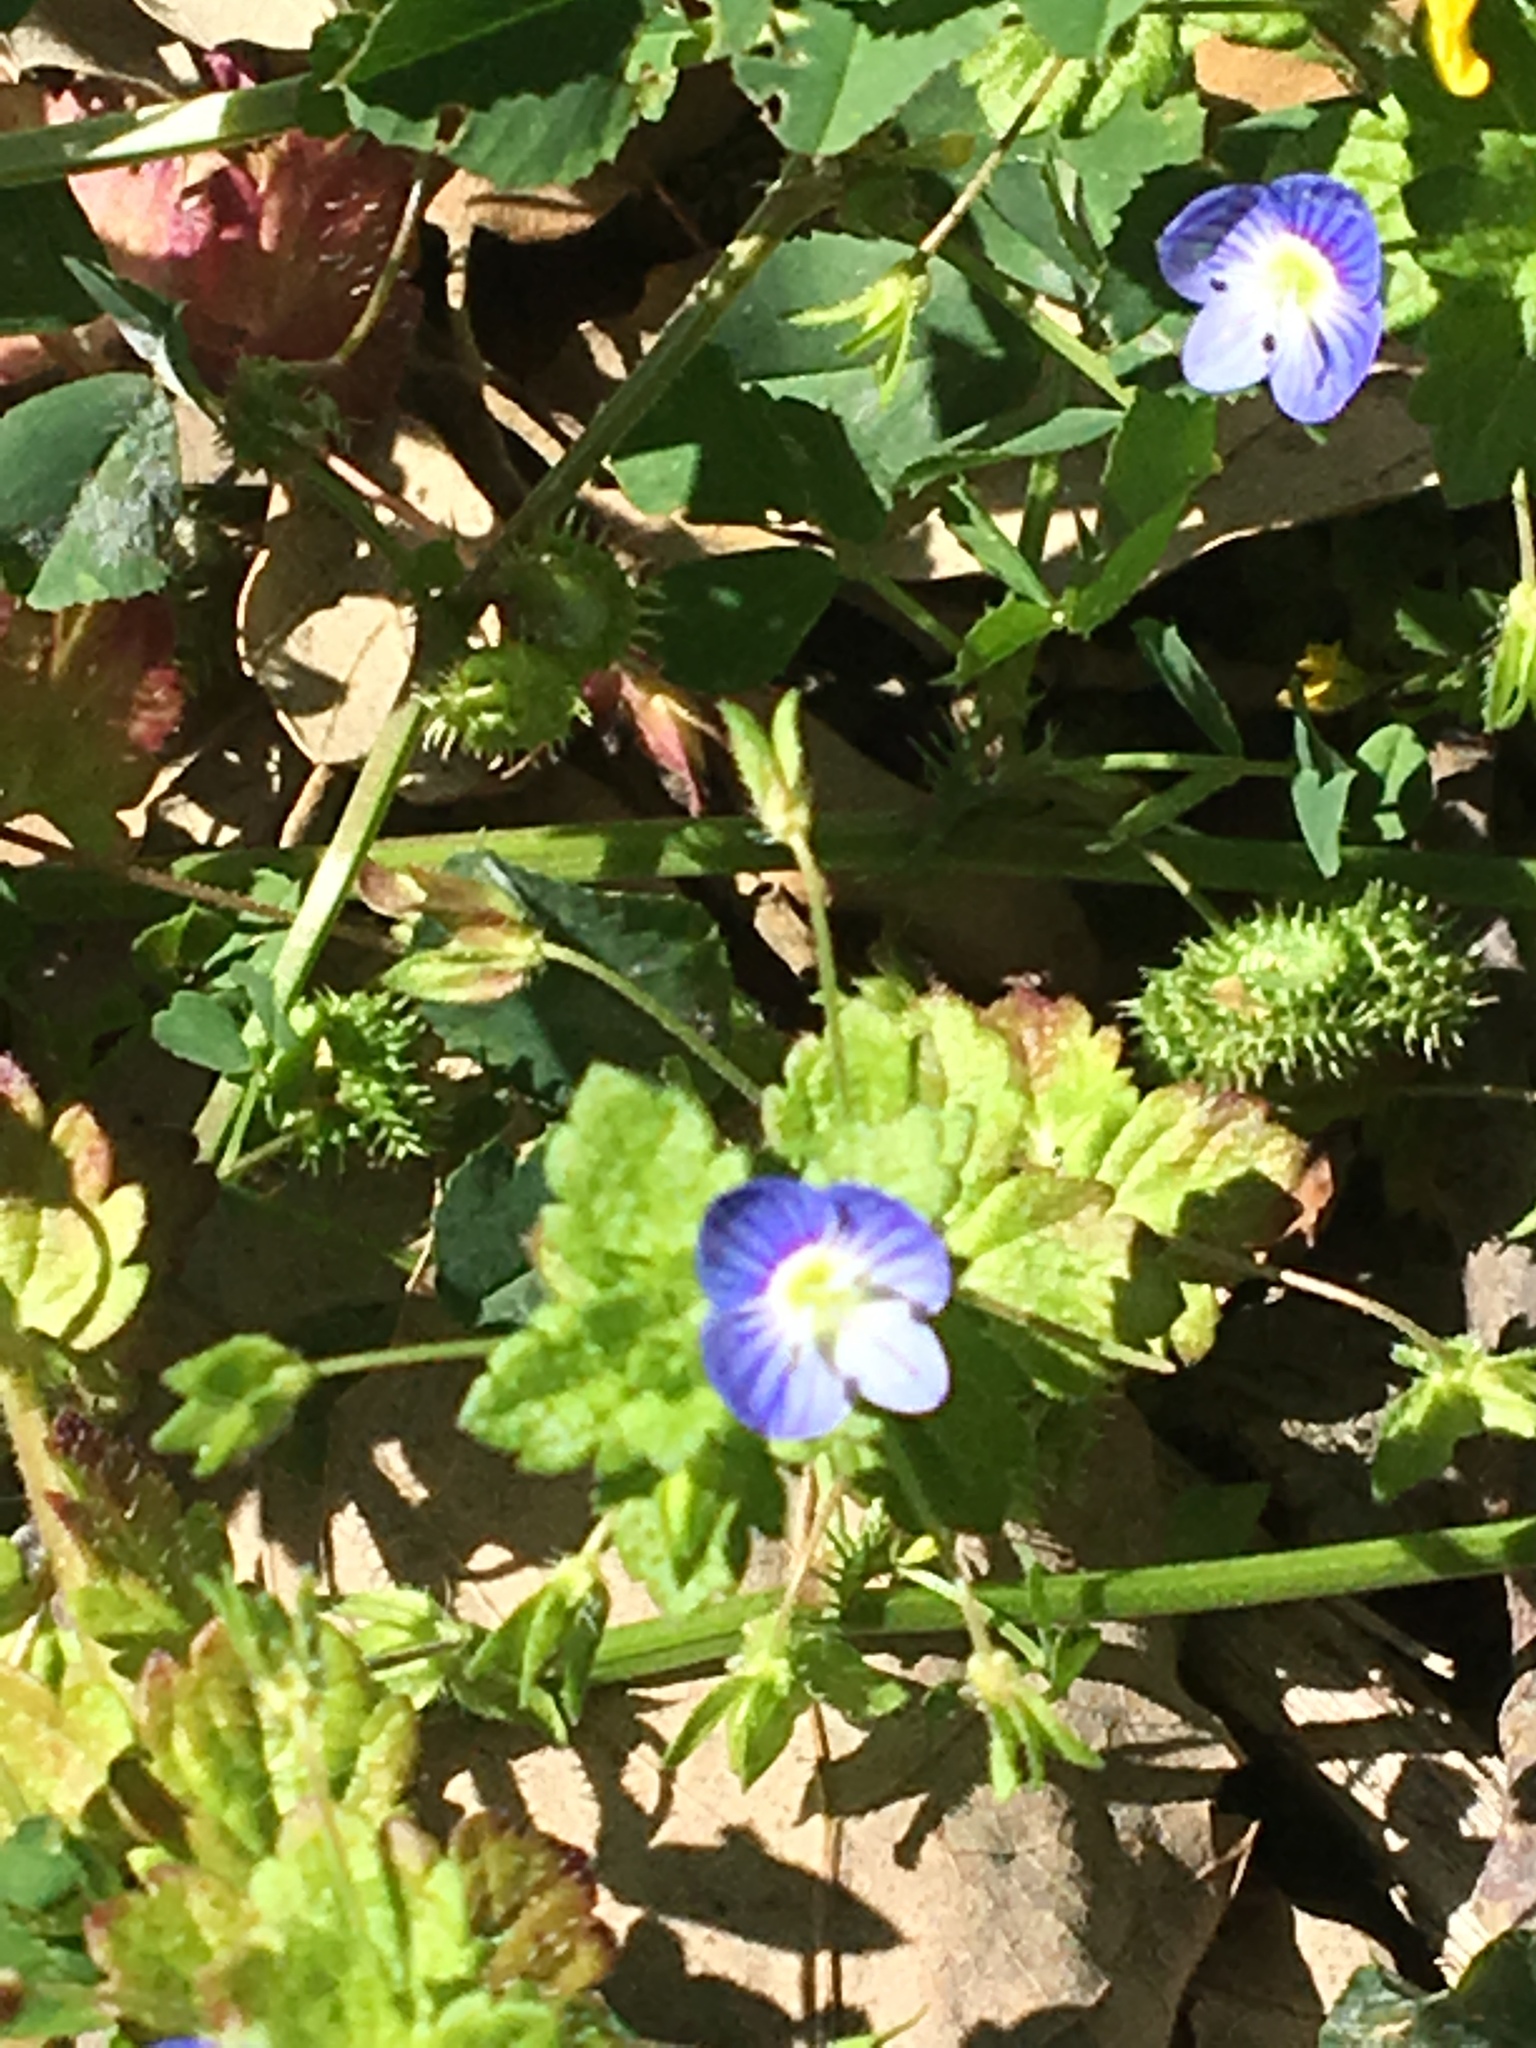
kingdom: Plantae
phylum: Tracheophyta
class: Magnoliopsida
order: Lamiales
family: Plantaginaceae
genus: Veronica
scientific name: Veronica persica
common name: Common field-speedwell
